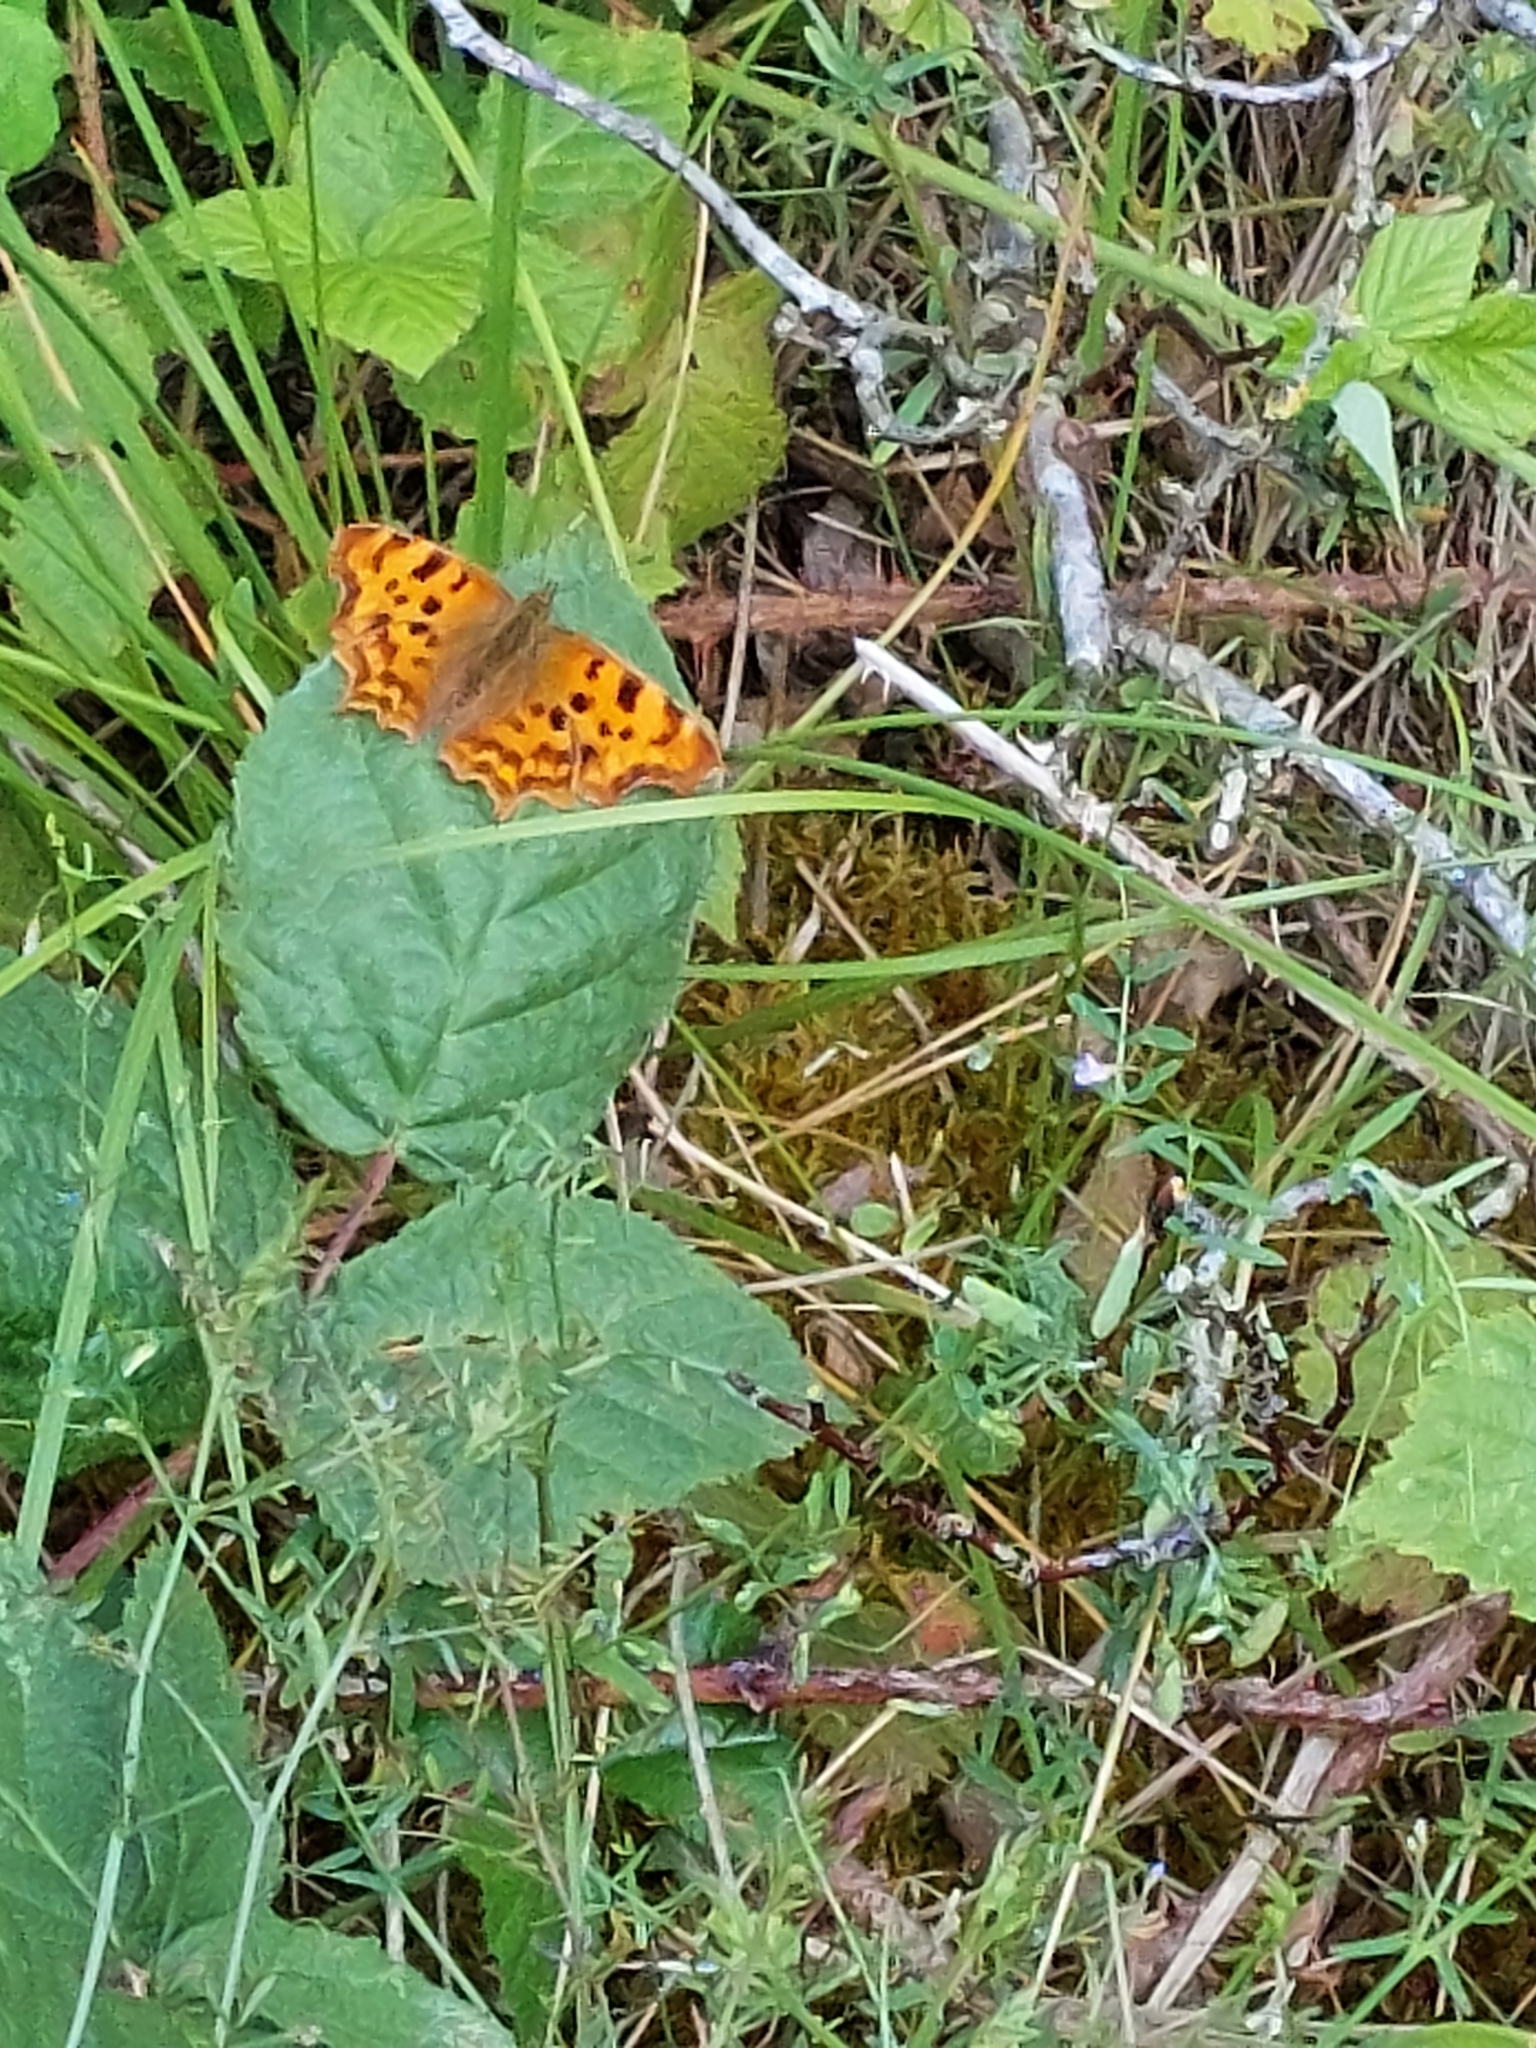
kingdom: Animalia
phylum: Arthropoda
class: Insecta
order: Lepidoptera
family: Nymphalidae
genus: Polygonia
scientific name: Polygonia c-album
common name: Comma
